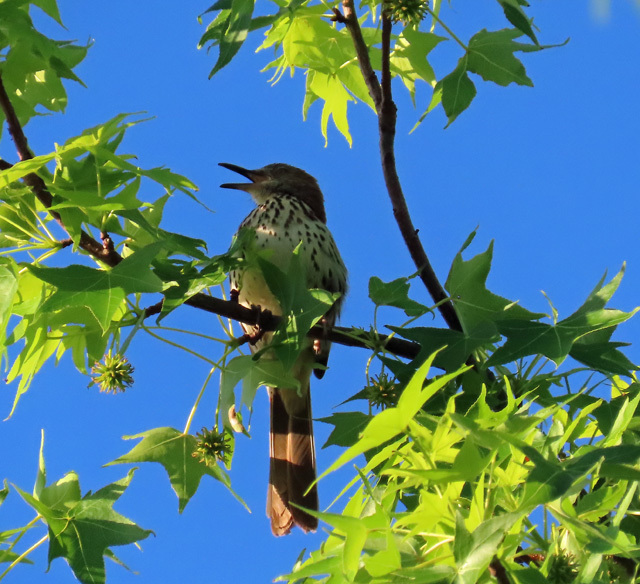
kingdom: Animalia
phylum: Chordata
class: Aves
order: Passeriformes
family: Mimidae
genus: Toxostoma
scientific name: Toxostoma rufum
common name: Brown thrasher
